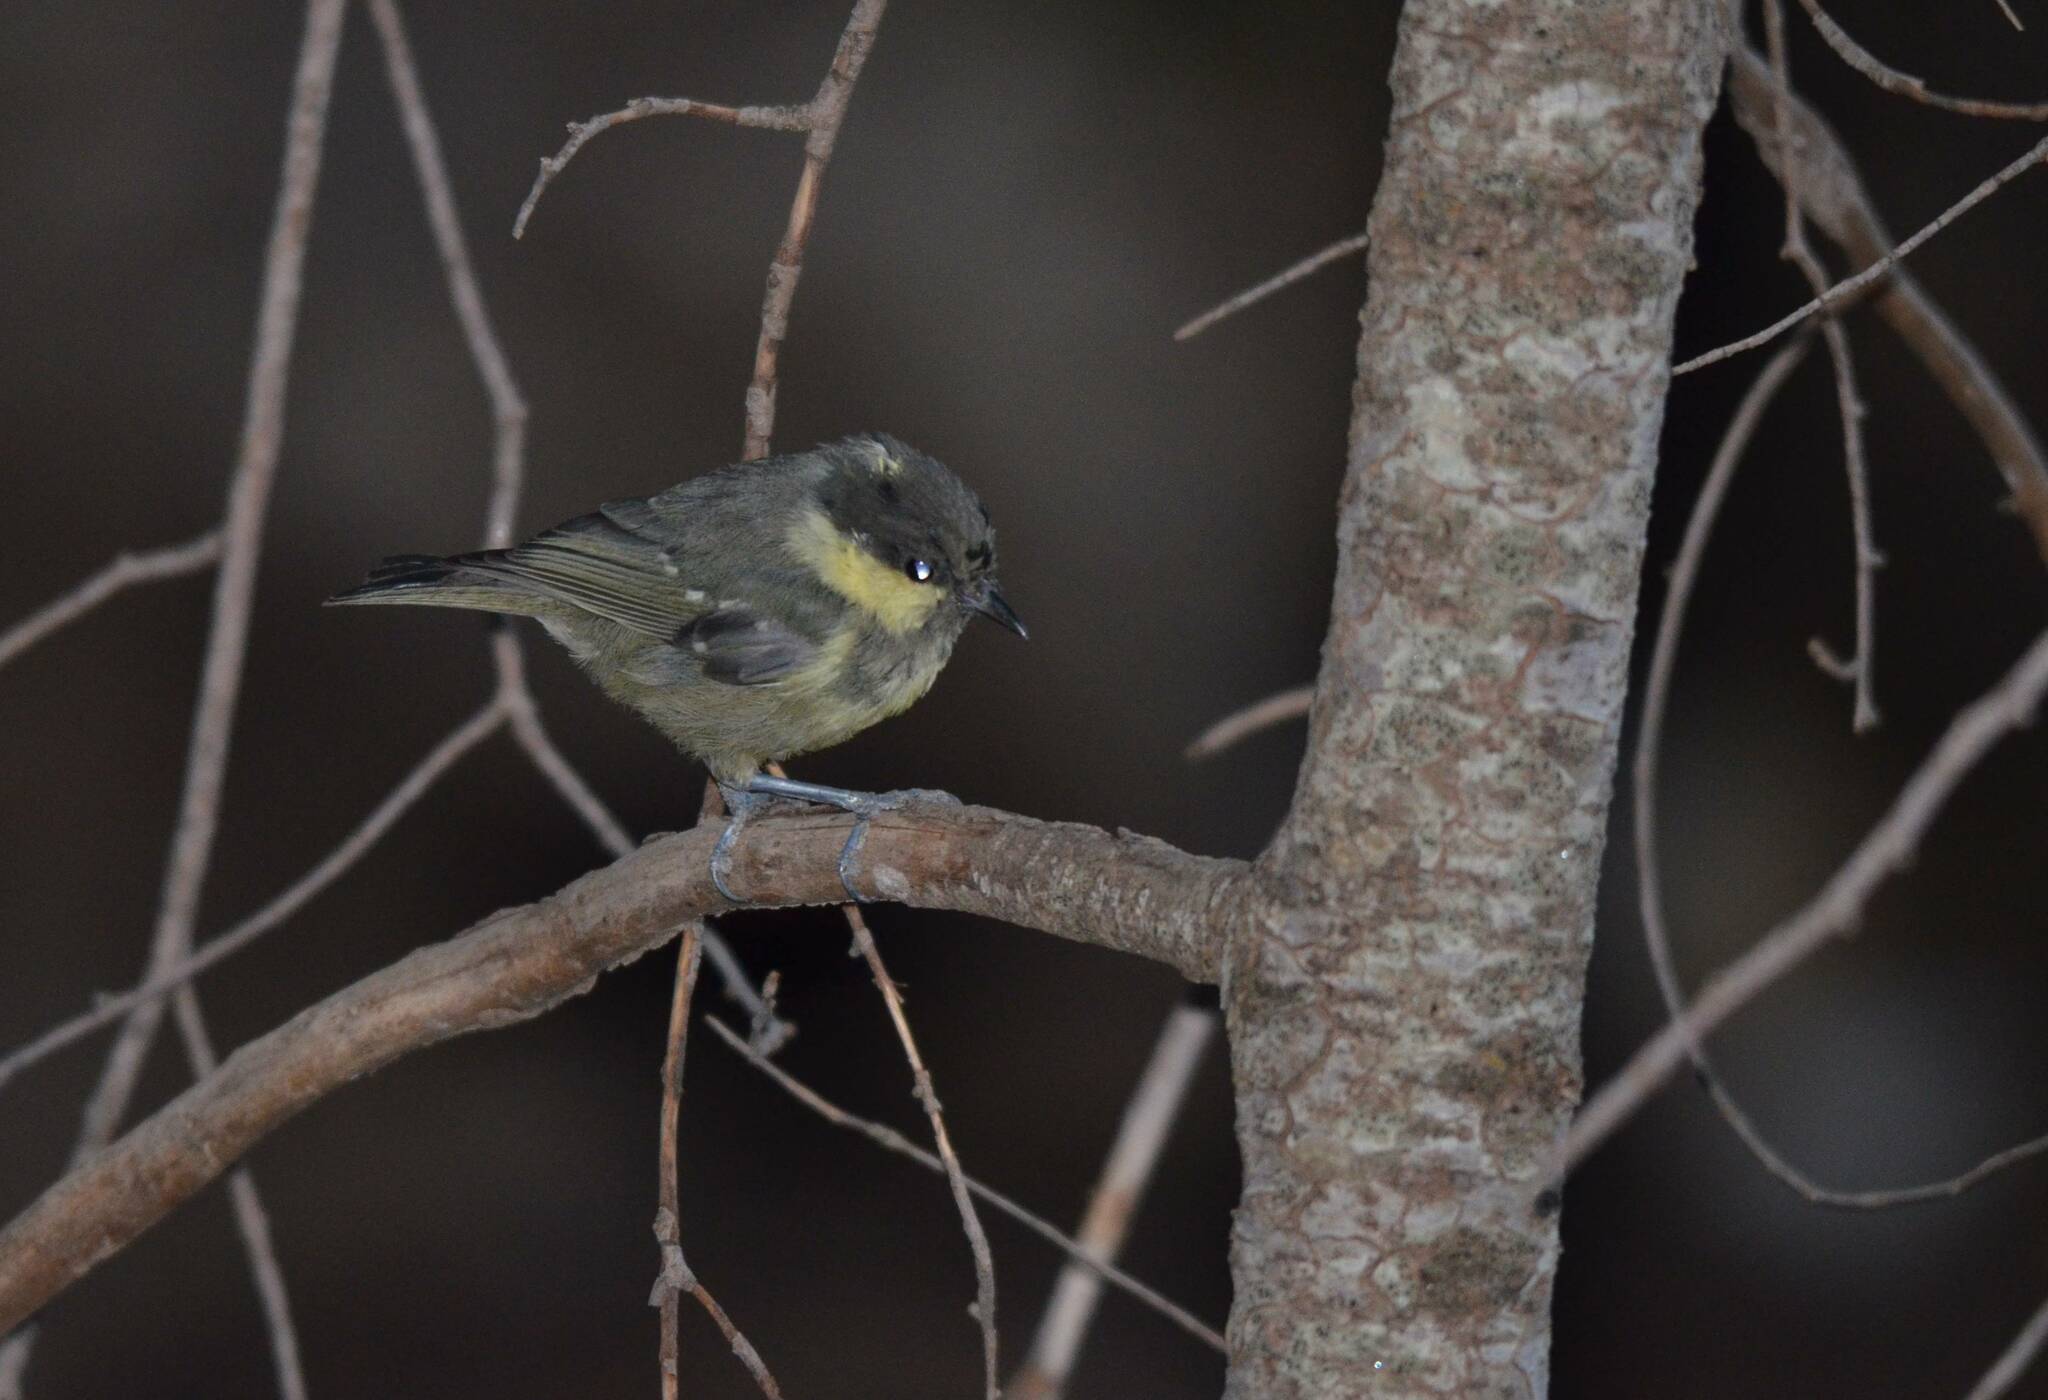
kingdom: Animalia
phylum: Chordata
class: Aves
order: Passeriformes
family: Paridae
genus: Periparus
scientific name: Periparus ater
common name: Coal tit
